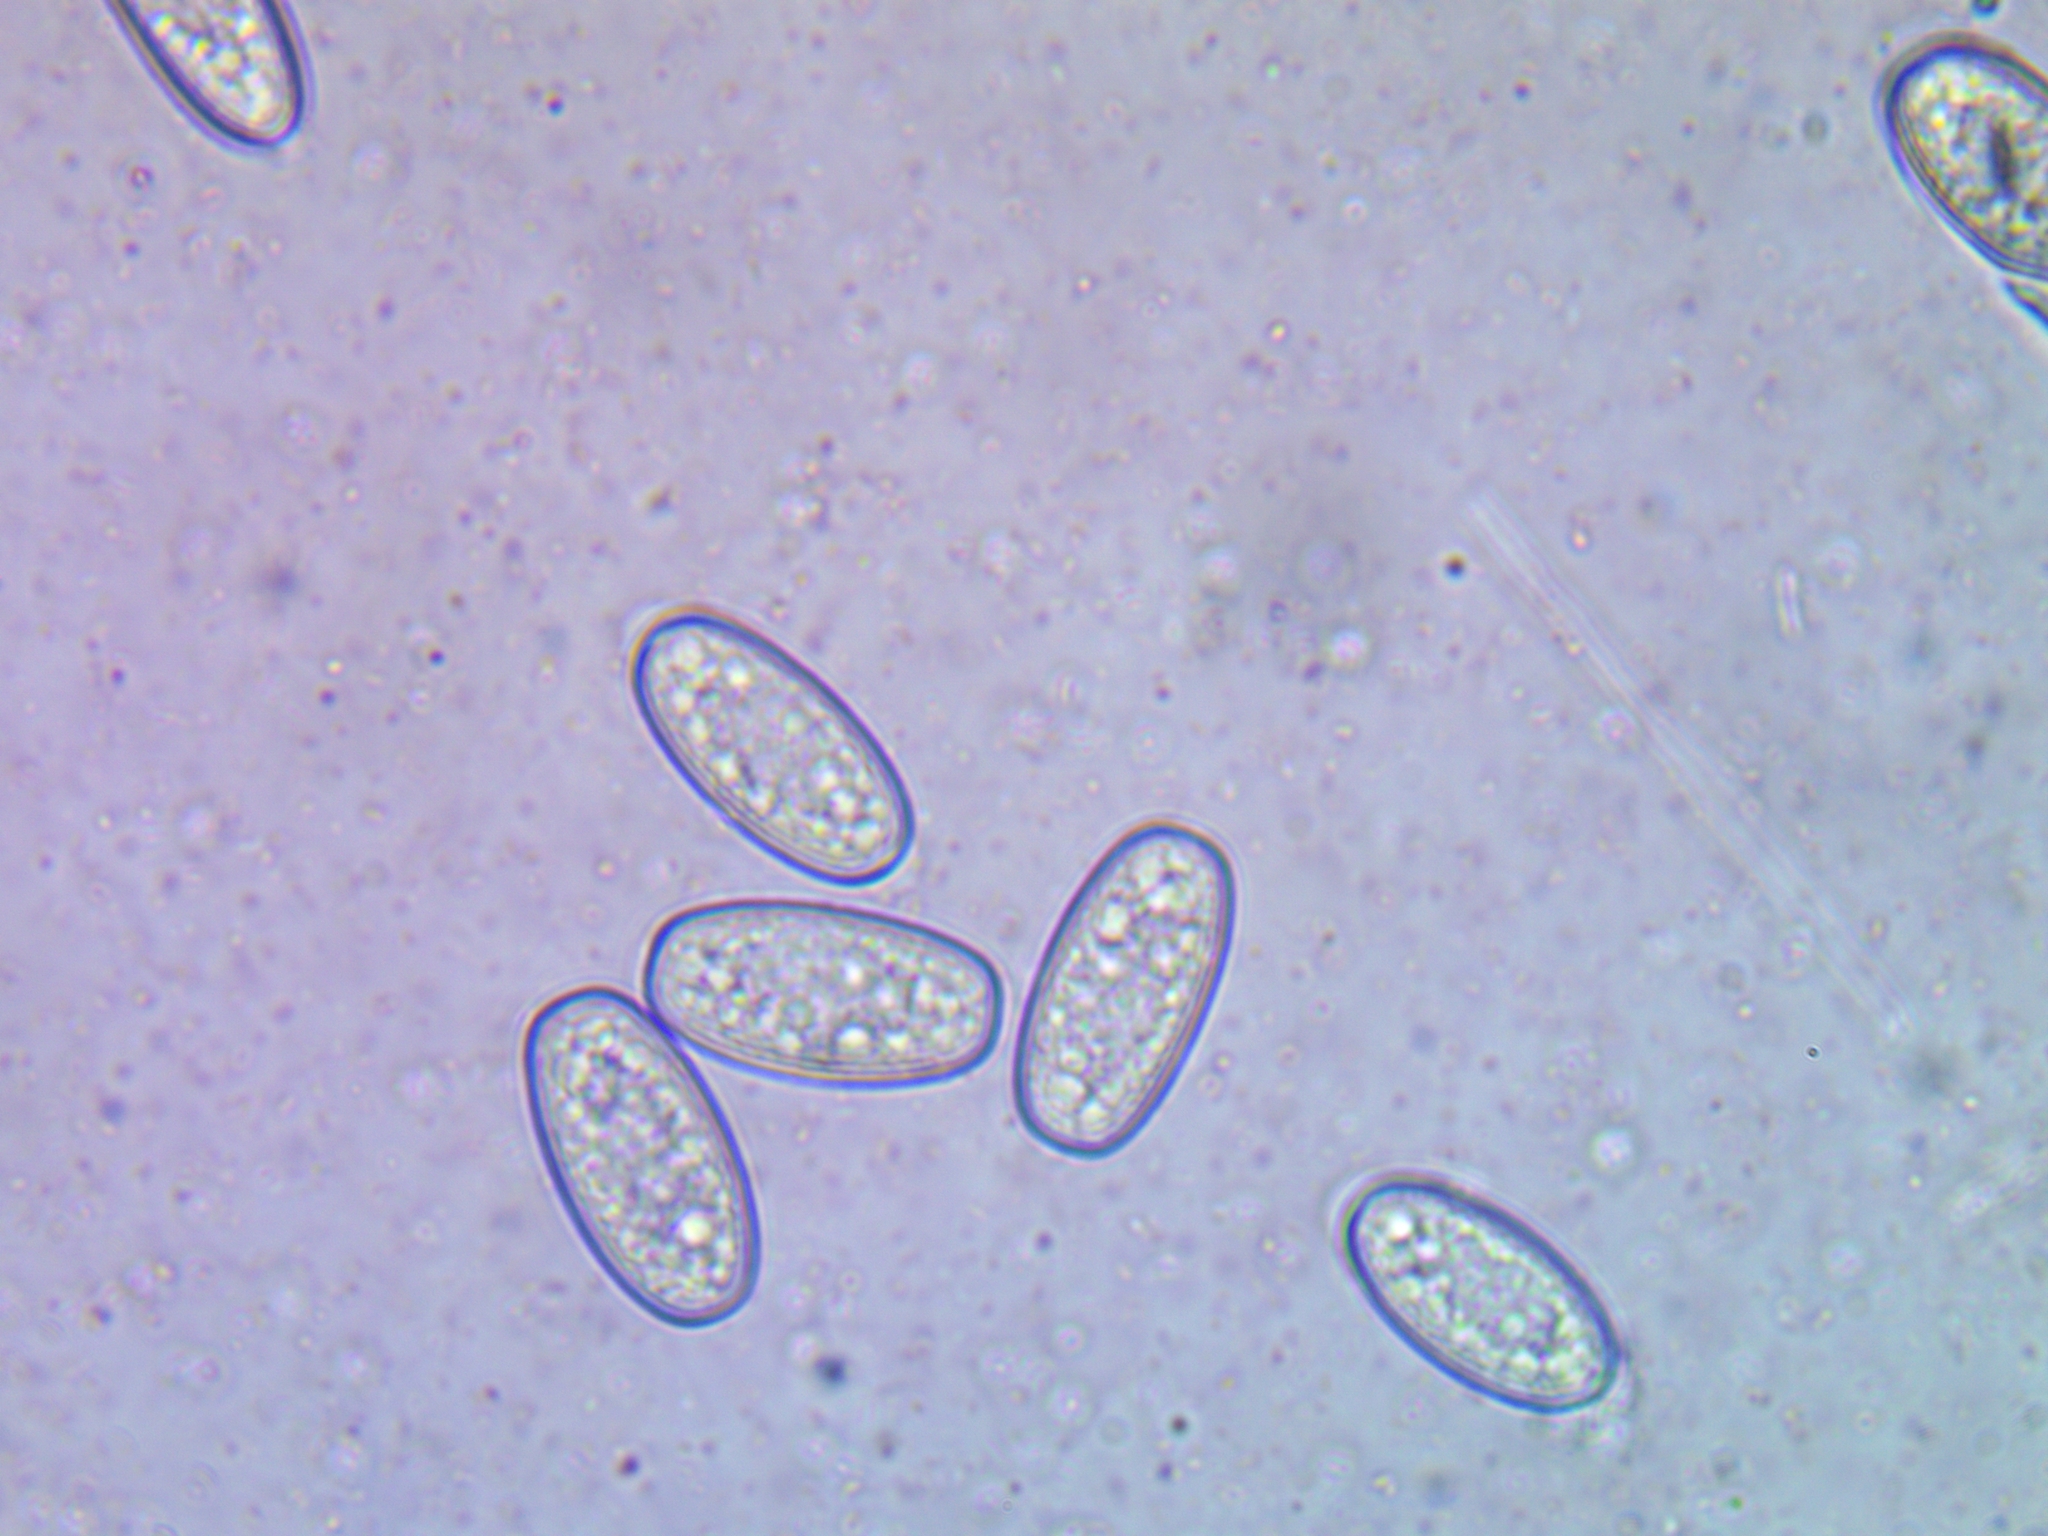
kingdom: Fungi
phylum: Ascomycota
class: Pezizomycetes
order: Pezizales
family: Sarcoscyphaceae
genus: Sarcoscypha
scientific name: Sarcoscypha austriaca
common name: Scarlet elfcup
